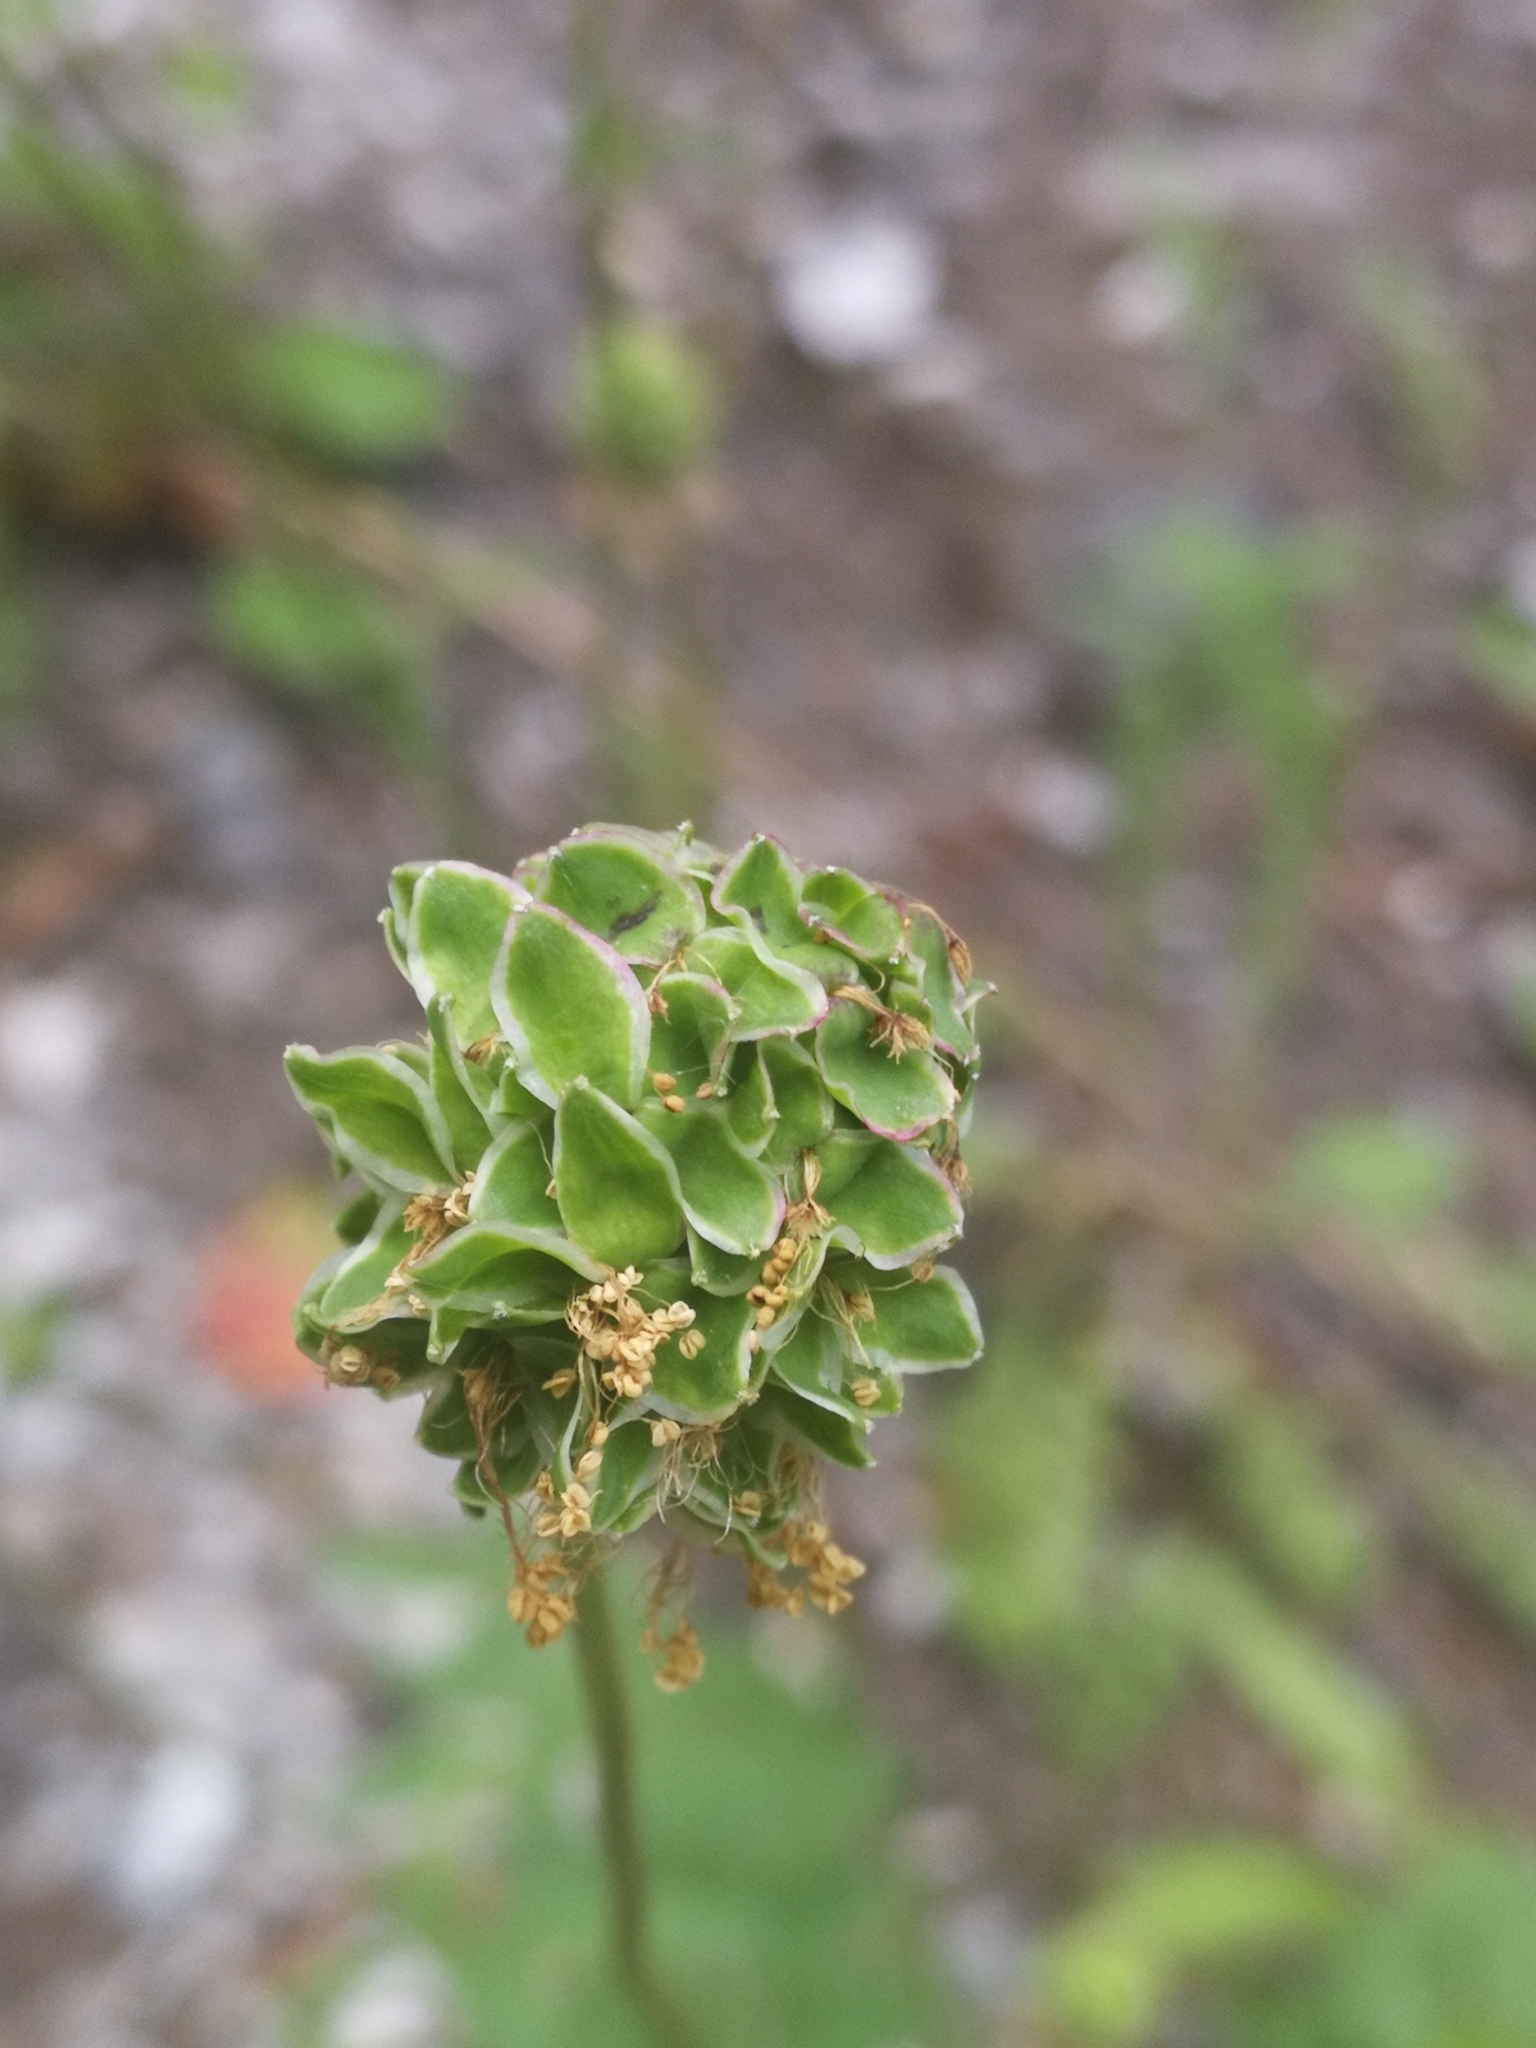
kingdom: Plantae
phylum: Tracheophyta
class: Magnoliopsida
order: Rosales
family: Rosaceae
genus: Poterium
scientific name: Poterium sanguisorba
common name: Salad burnet
